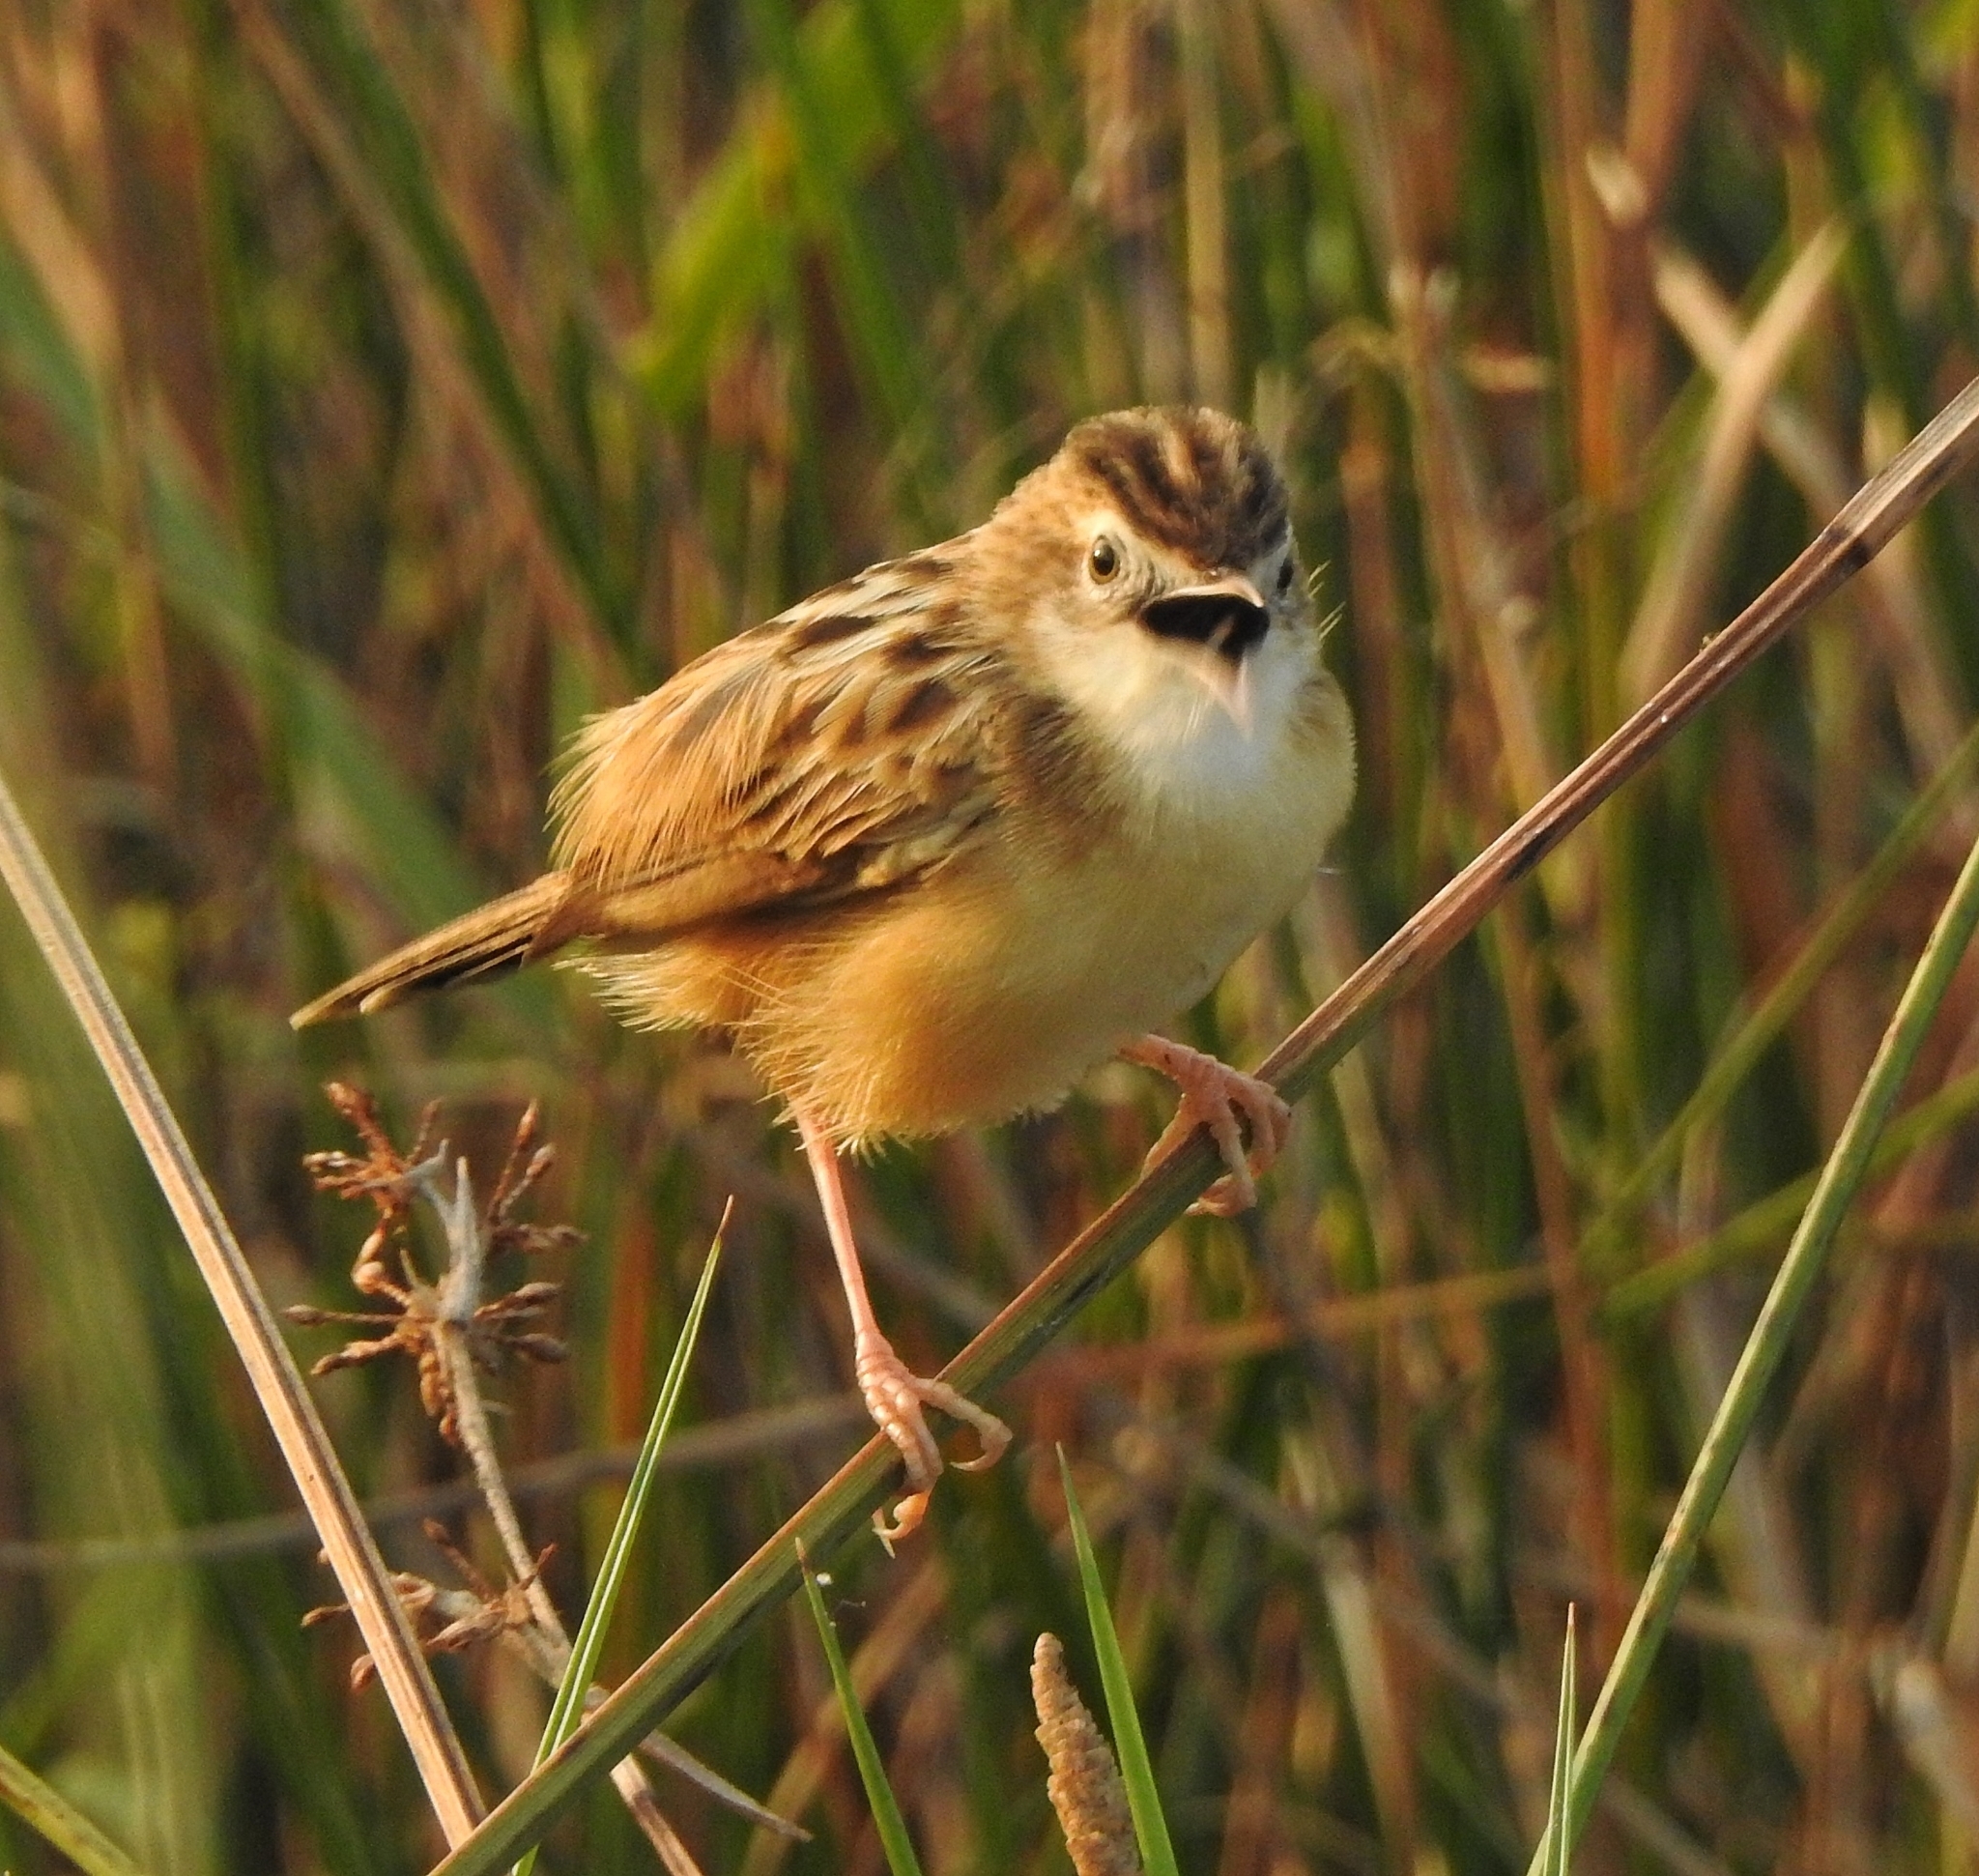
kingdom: Animalia
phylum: Chordata
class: Aves
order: Passeriformes
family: Cisticolidae
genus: Cisticola
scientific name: Cisticola juncidis
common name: Zitting cisticola
